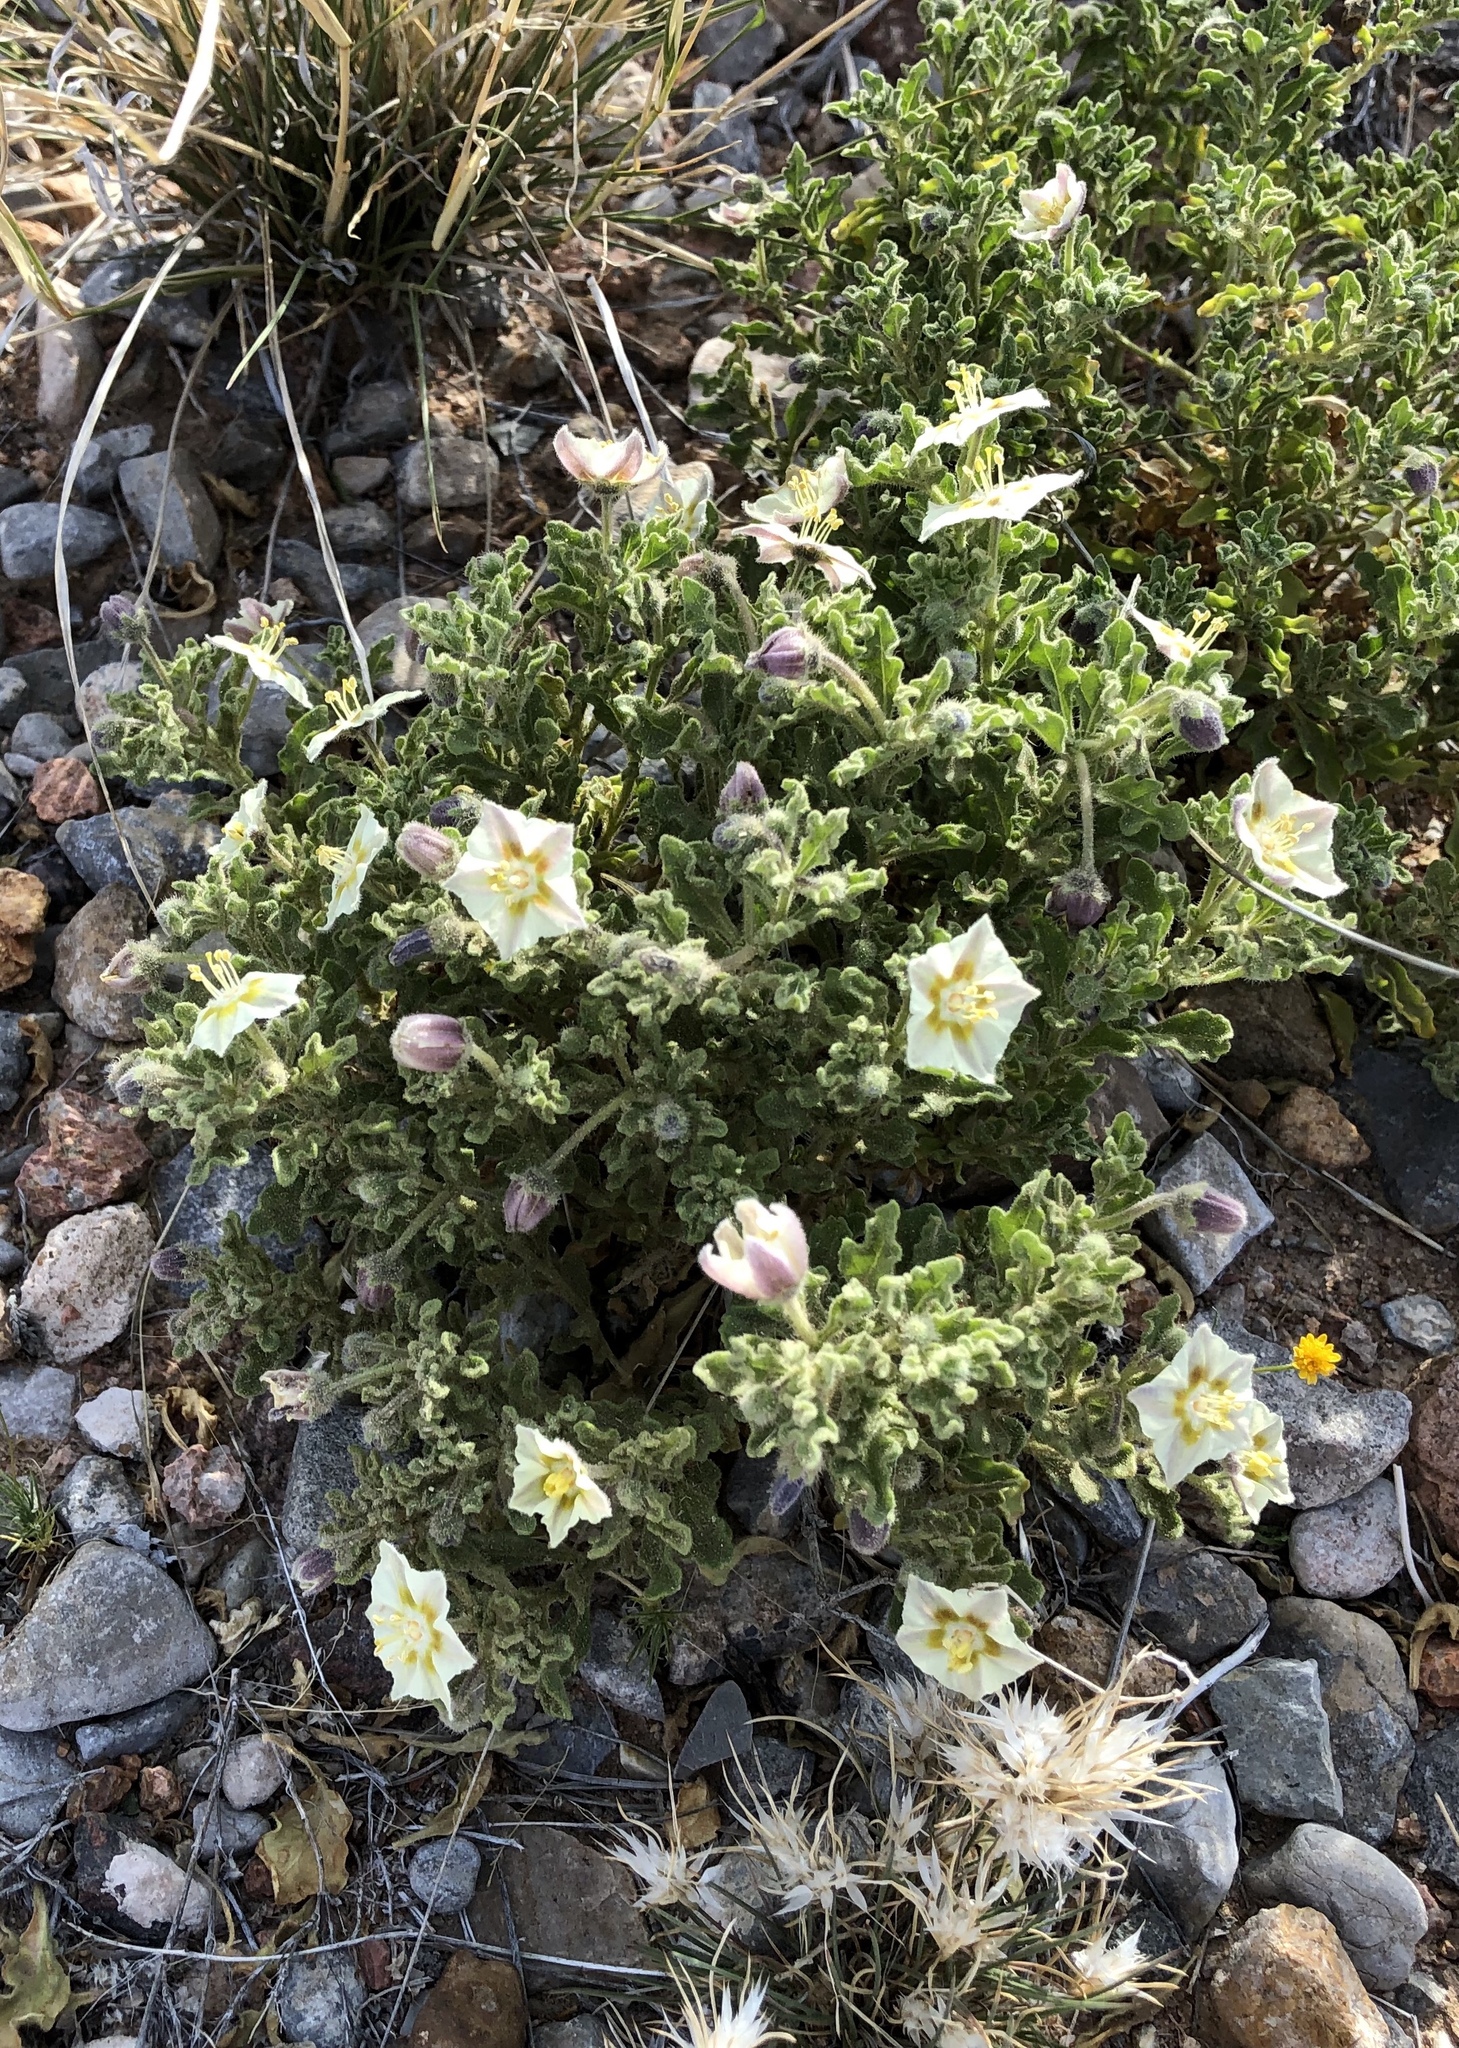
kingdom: Plantae
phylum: Tracheophyta
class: Magnoliopsida
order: Solanales
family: Solanaceae
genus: Chamaesaracha
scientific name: Chamaesaracha sordida
